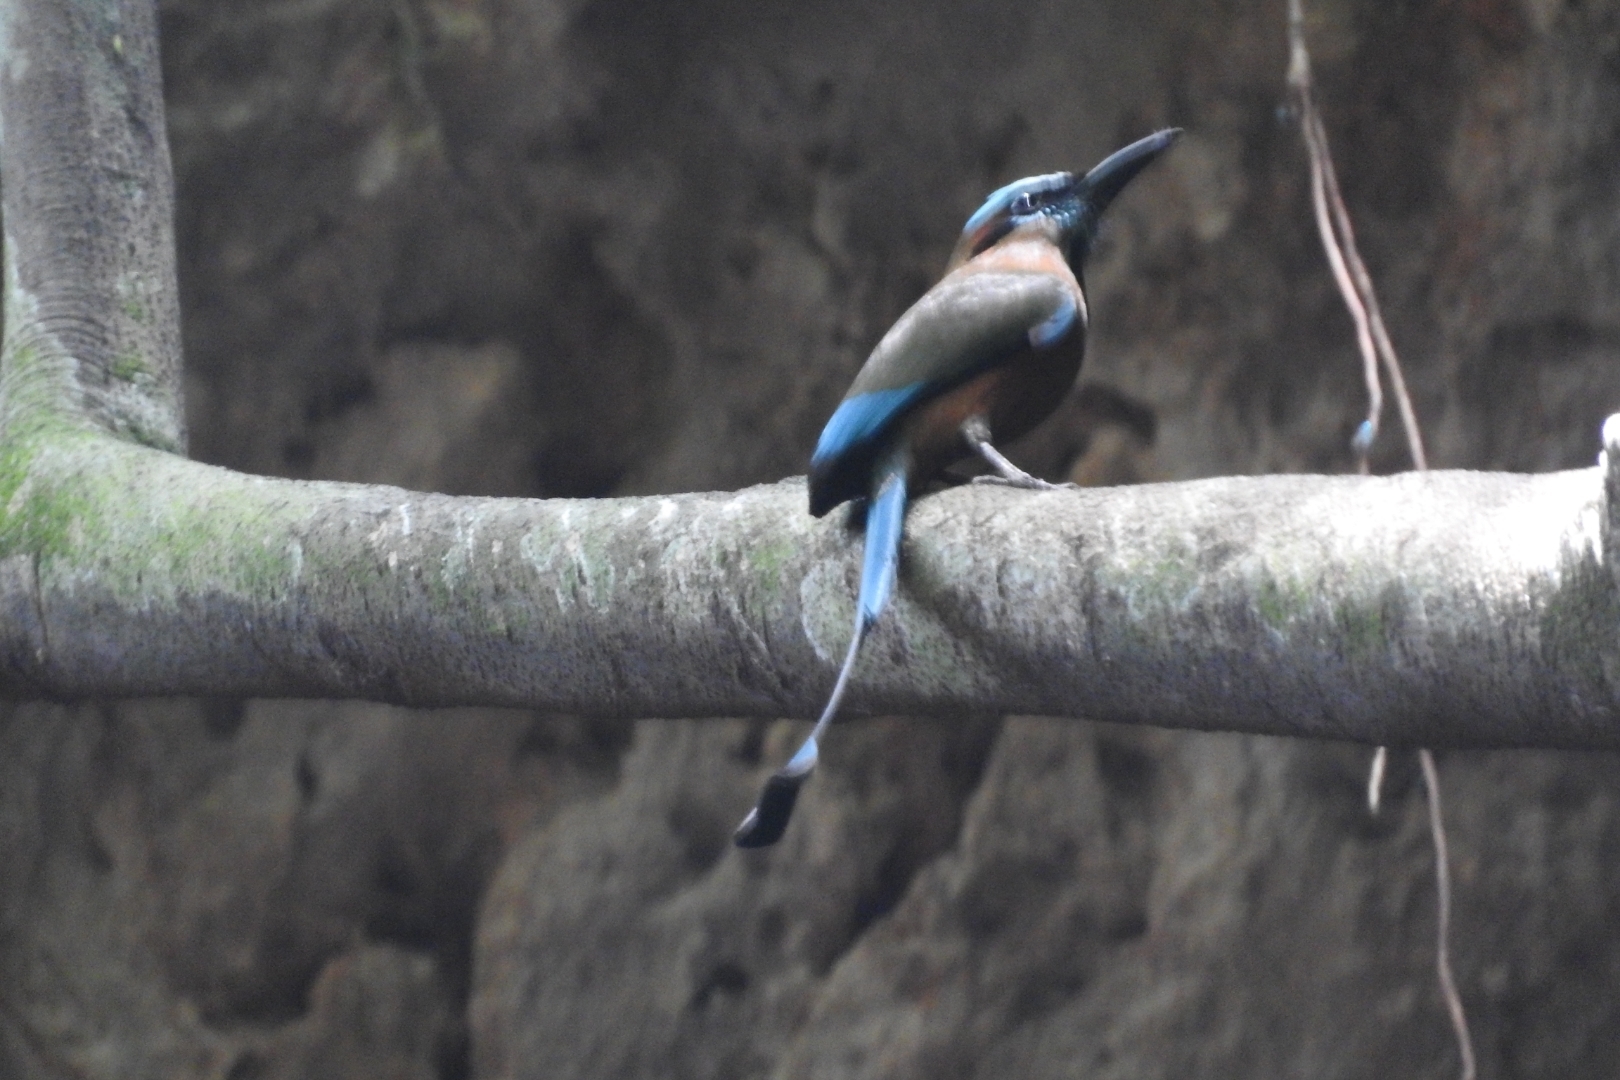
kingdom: Animalia
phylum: Chordata
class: Aves
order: Coraciiformes
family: Momotidae
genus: Eumomota
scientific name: Eumomota superciliosa
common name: Turquoise-browed motmot
